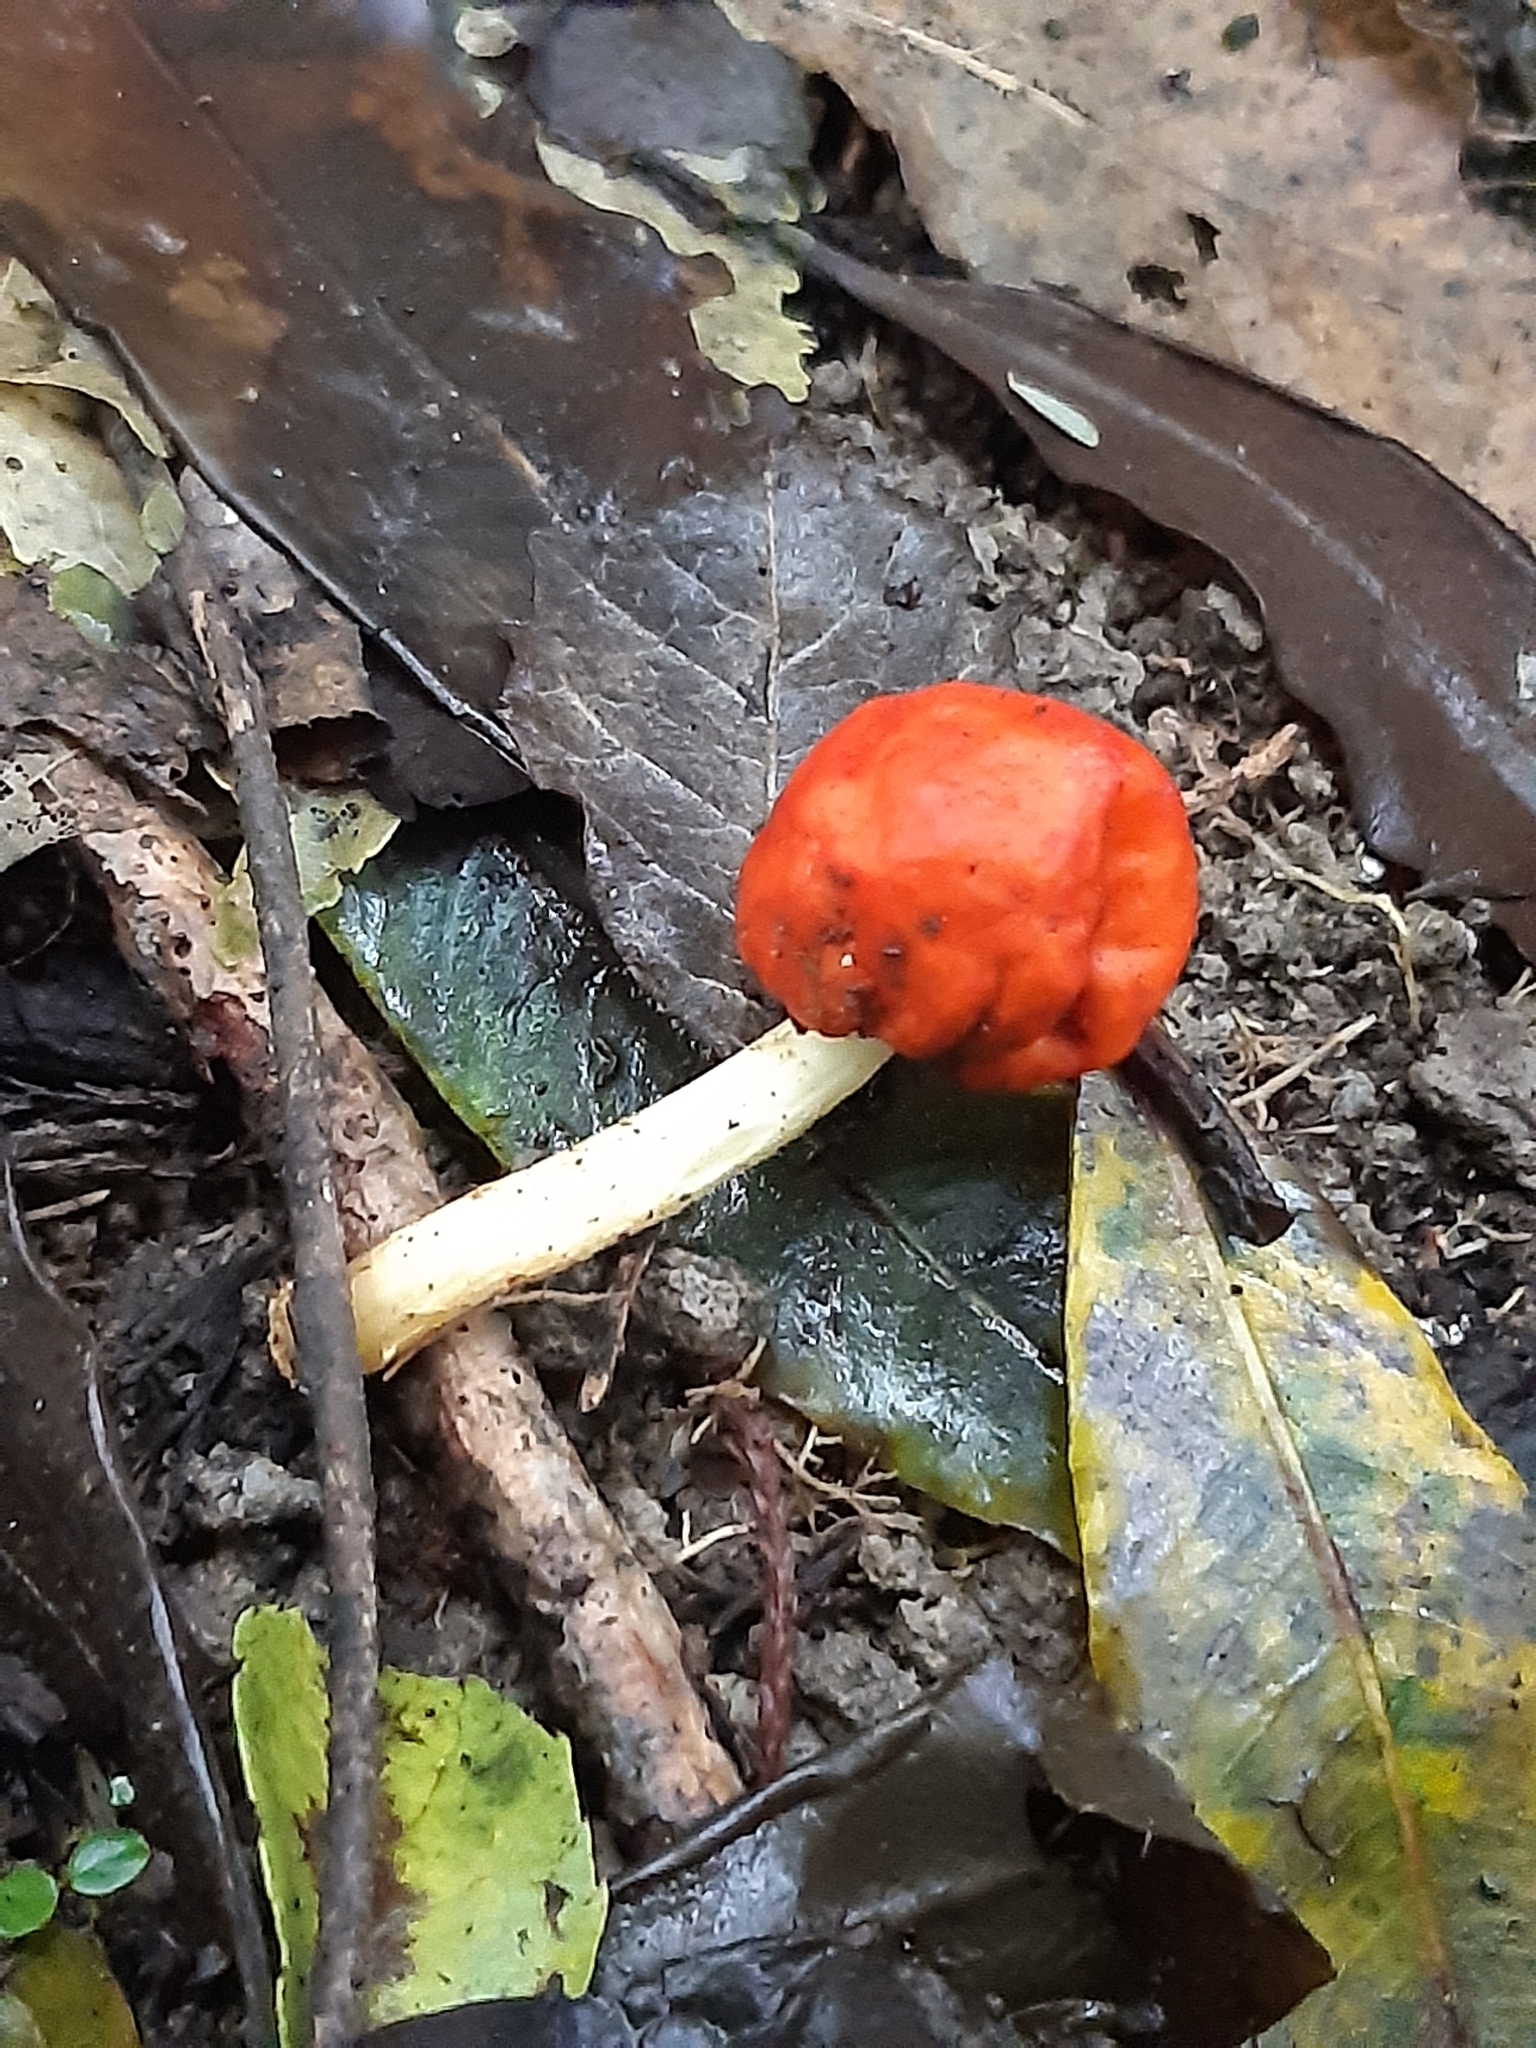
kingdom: Fungi
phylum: Basidiomycota
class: Agaricomycetes
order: Agaricales
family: Strophariaceae
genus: Leratiomyces
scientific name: Leratiomyces erythrocephalus
